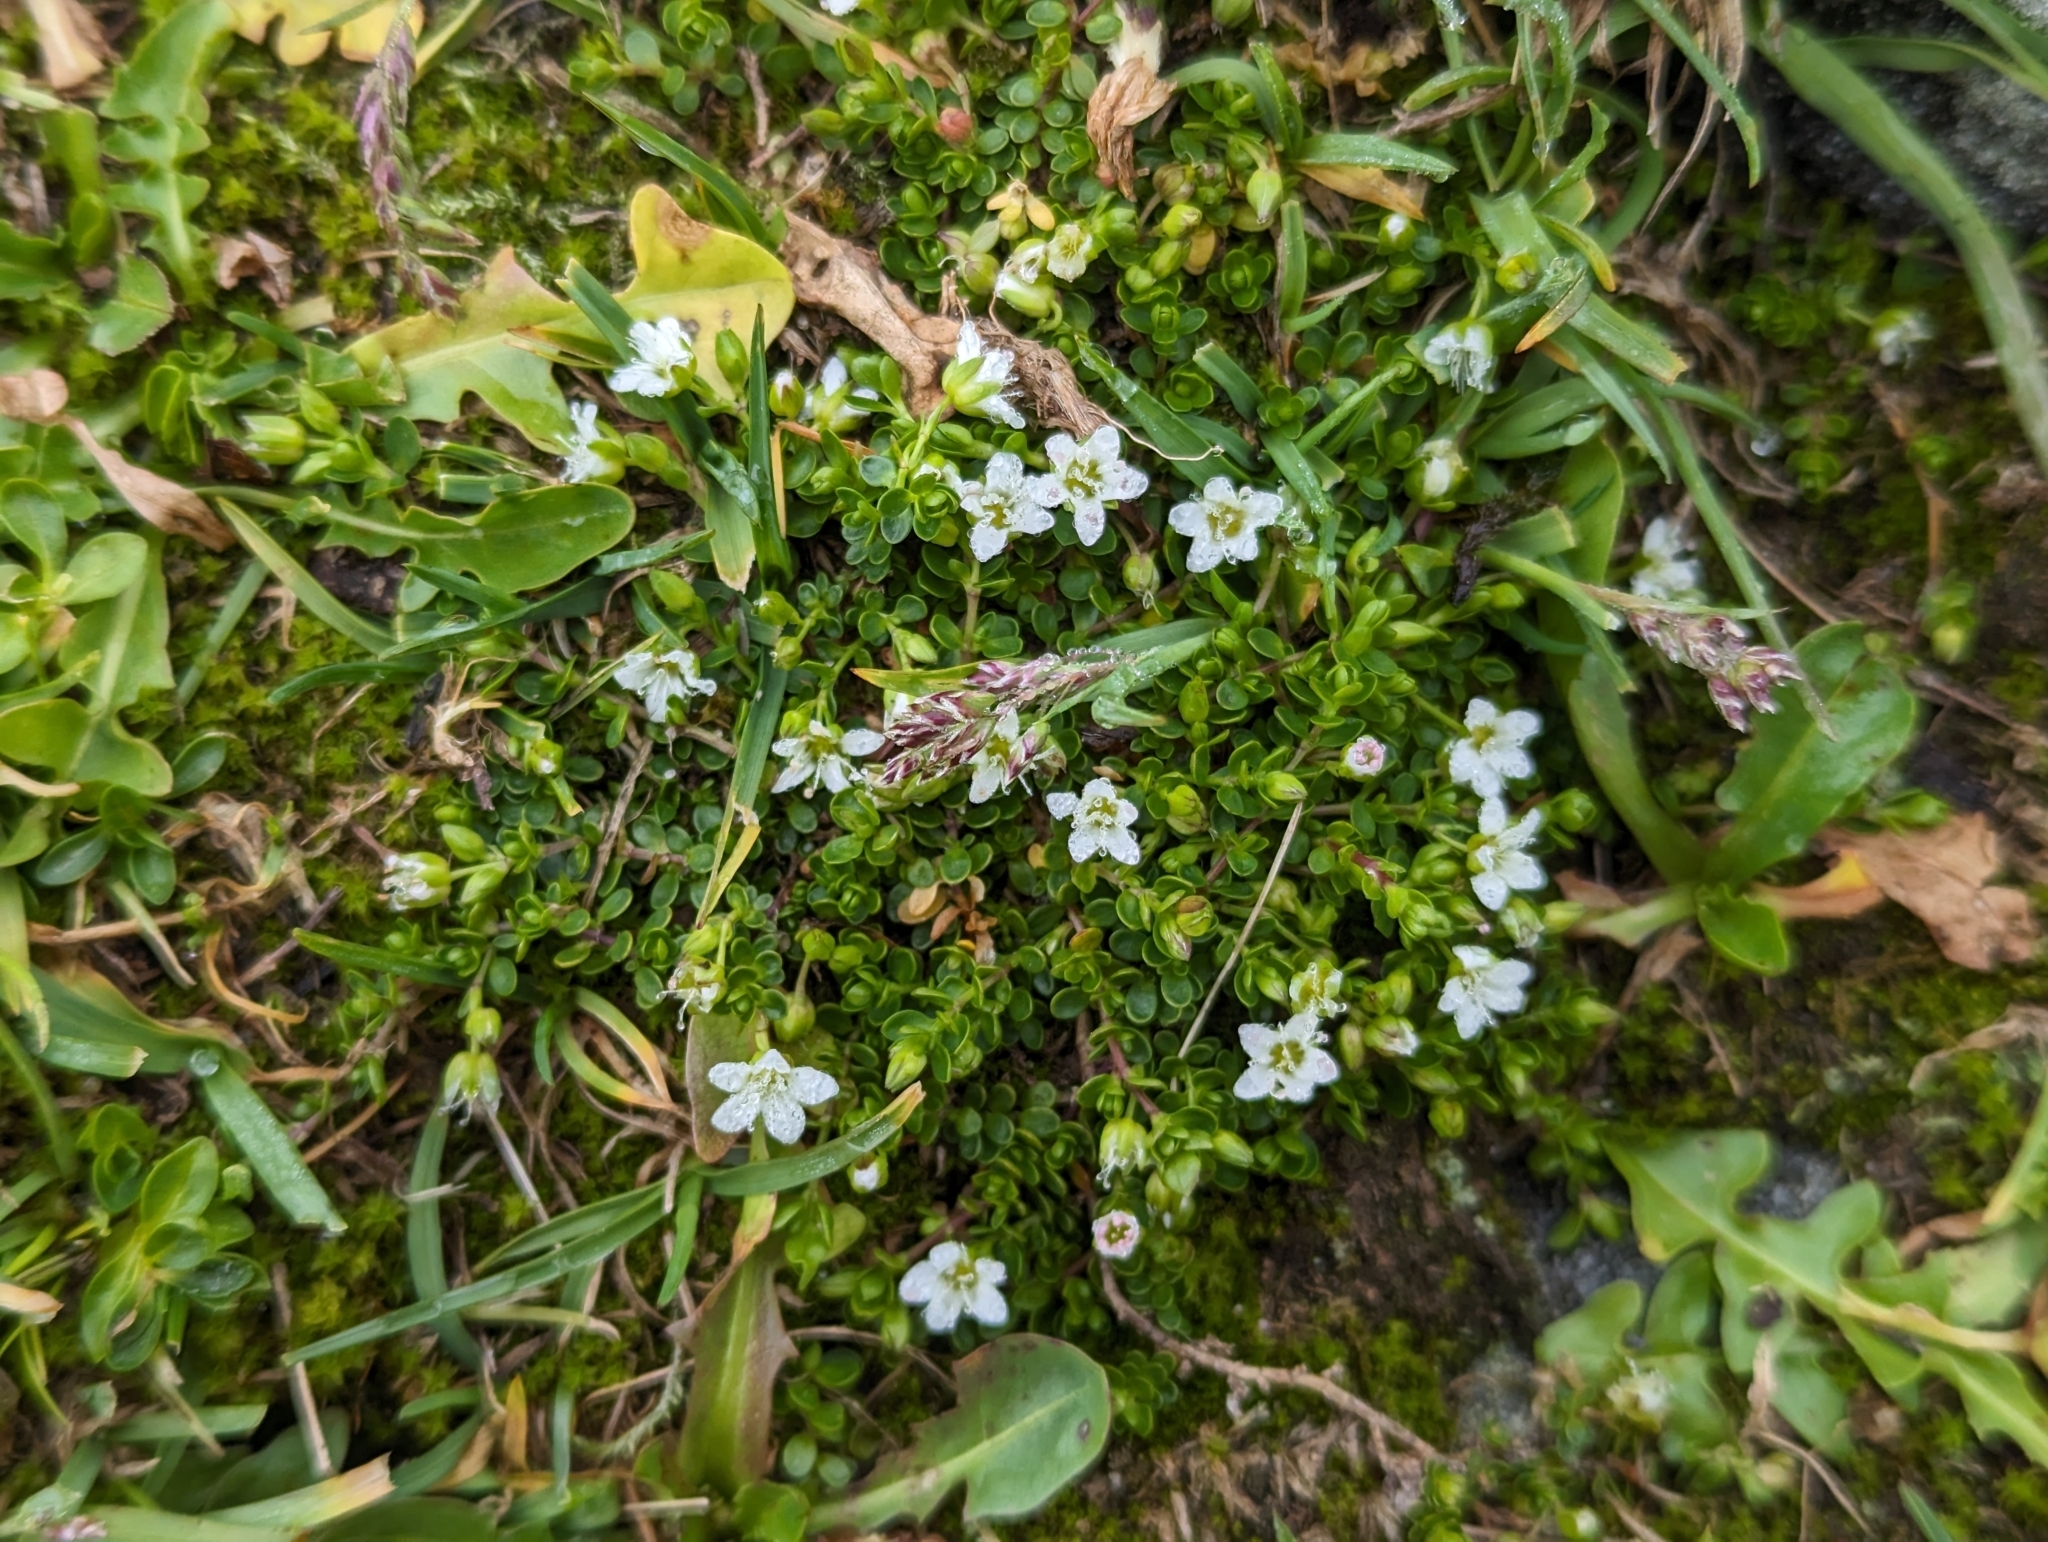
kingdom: Plantae
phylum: Tracheophyta
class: Magnoliopsida
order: Caryophyllales
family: Caryophyllaceae
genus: Arenaria
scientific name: Arenaria biflora
